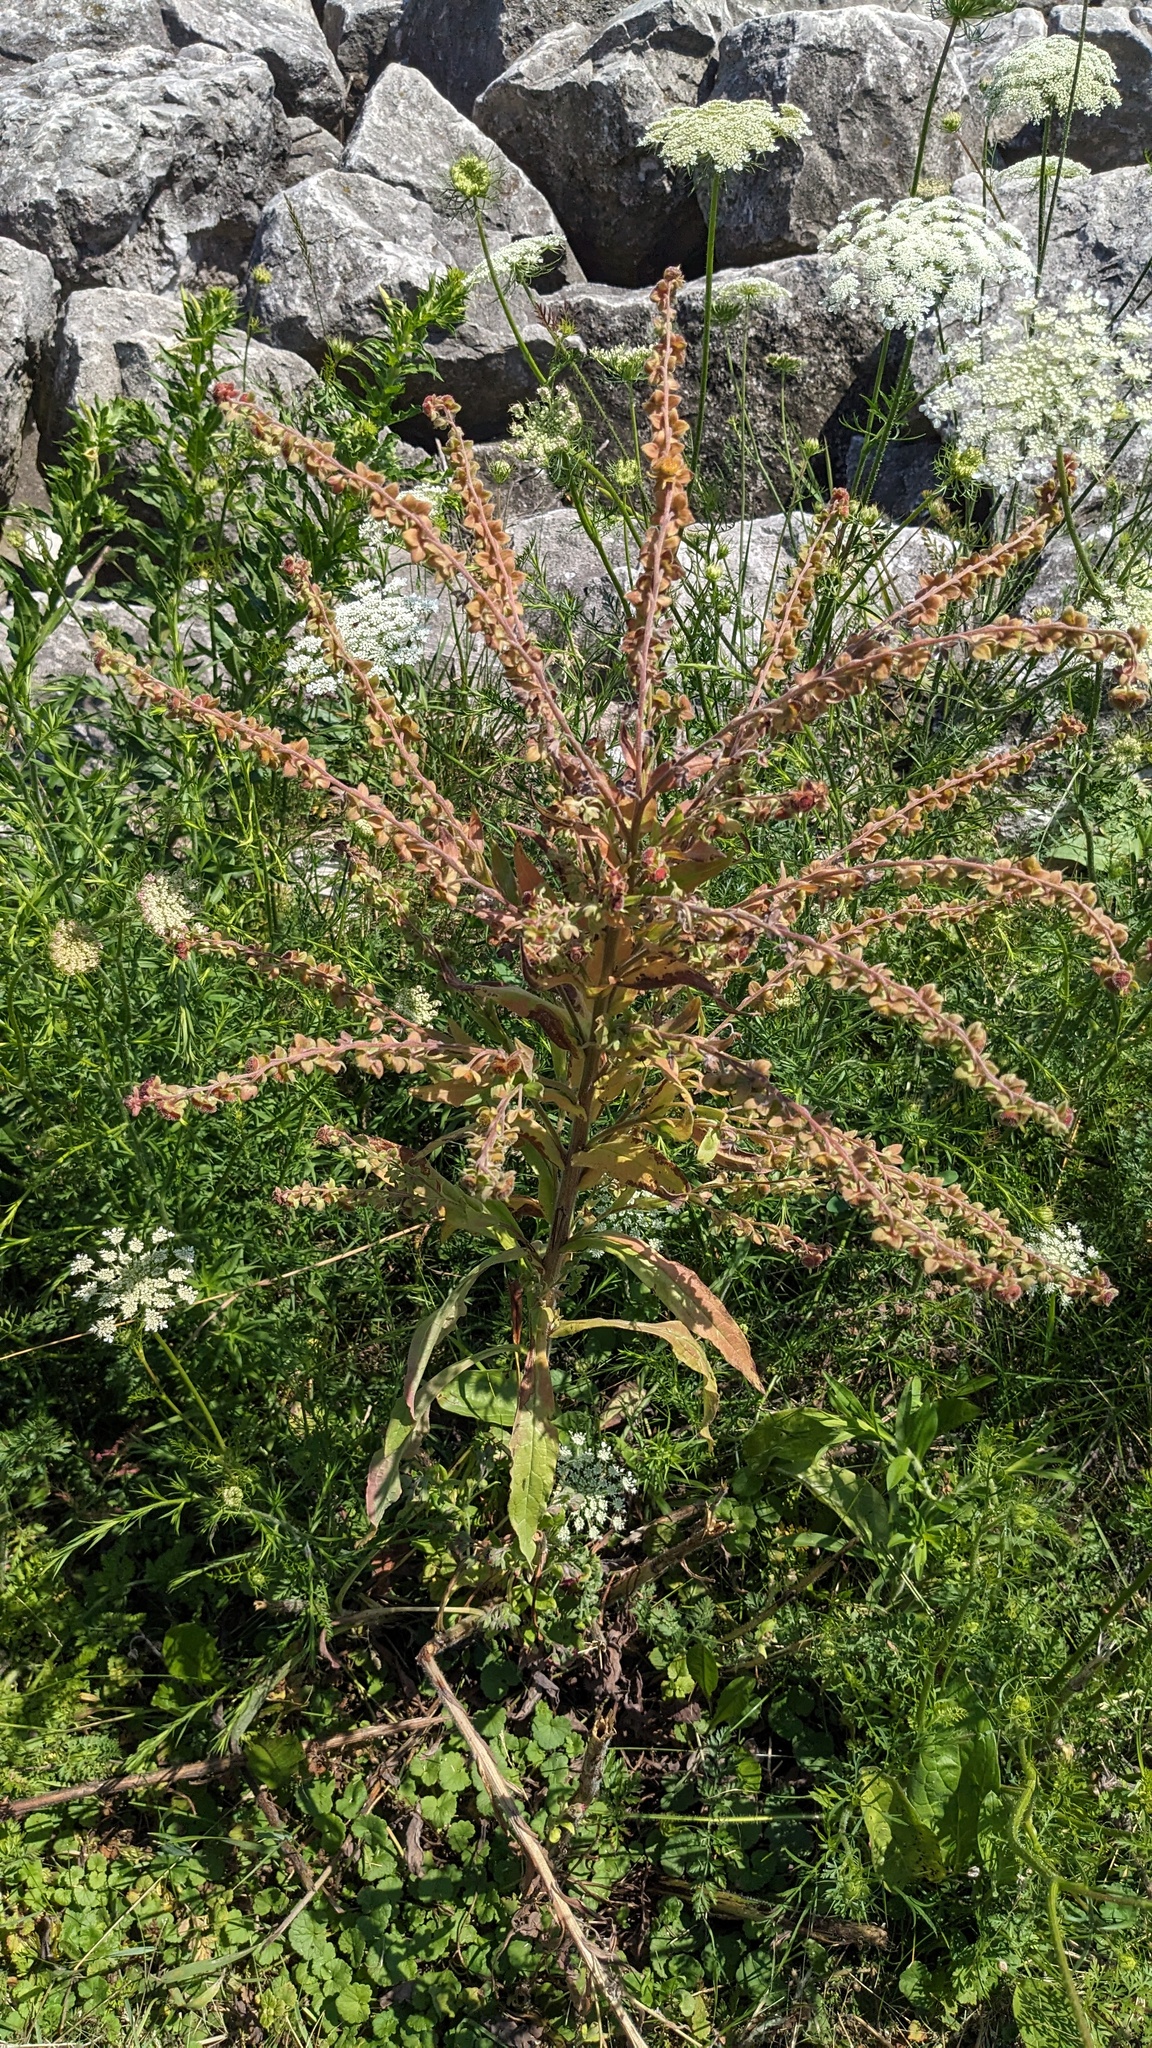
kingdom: Plantae
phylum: Tracheophyta
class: Magnoliopsida
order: Boraginales
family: Boraginaceae
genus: Cynoglossum
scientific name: Cynoglossum officinale
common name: Hound's-tongue
